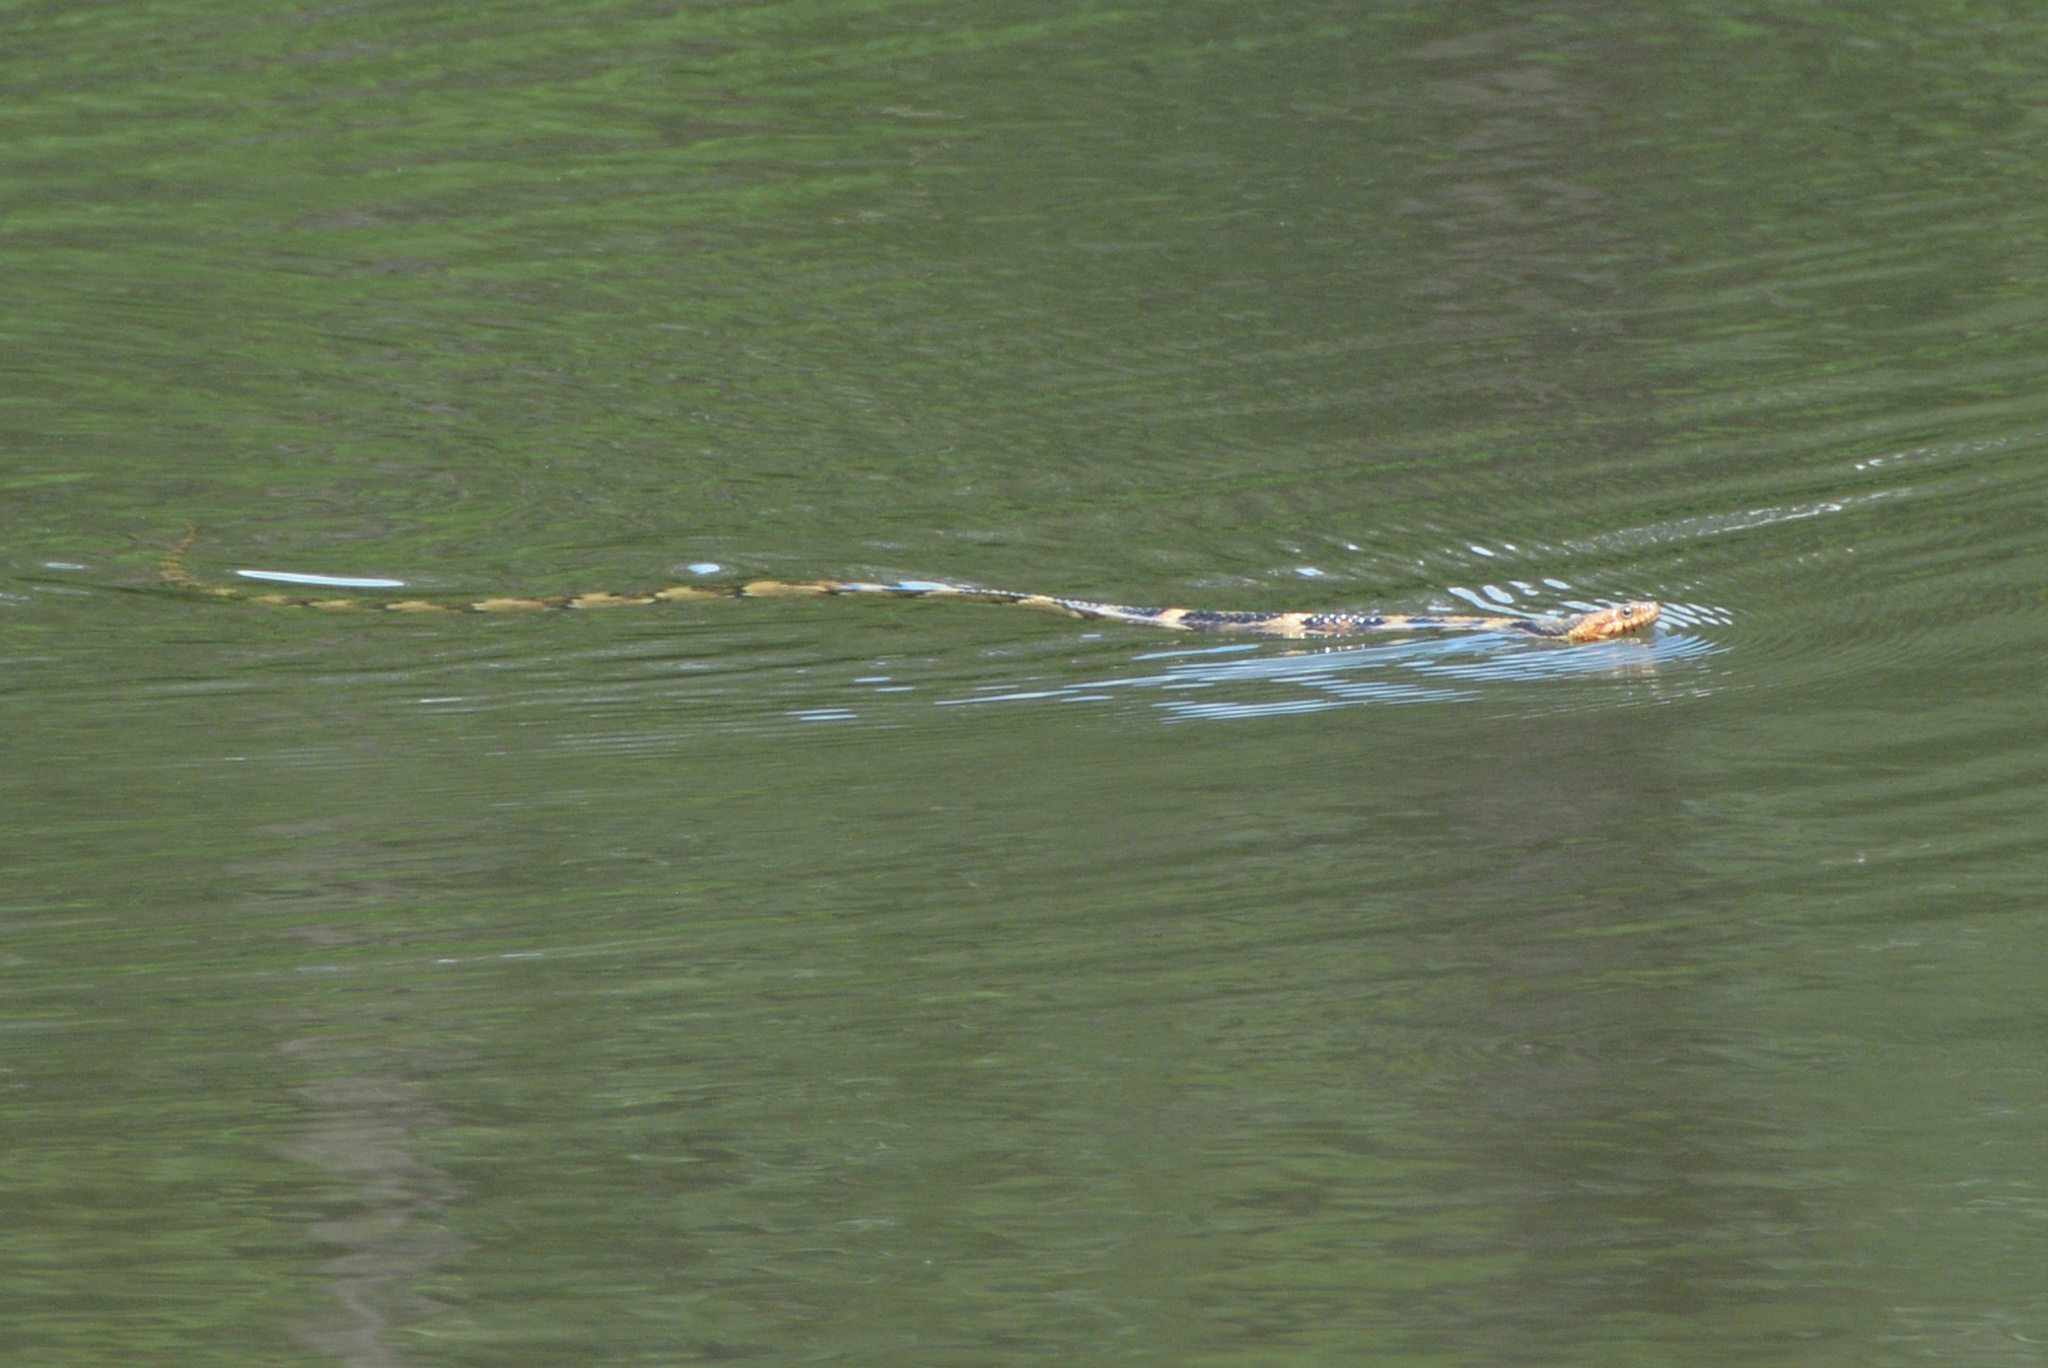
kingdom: Animalia
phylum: Chordata
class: Squamata
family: Colubridae
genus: Nerodia
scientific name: Nerodia fasciata
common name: Southern water snake
